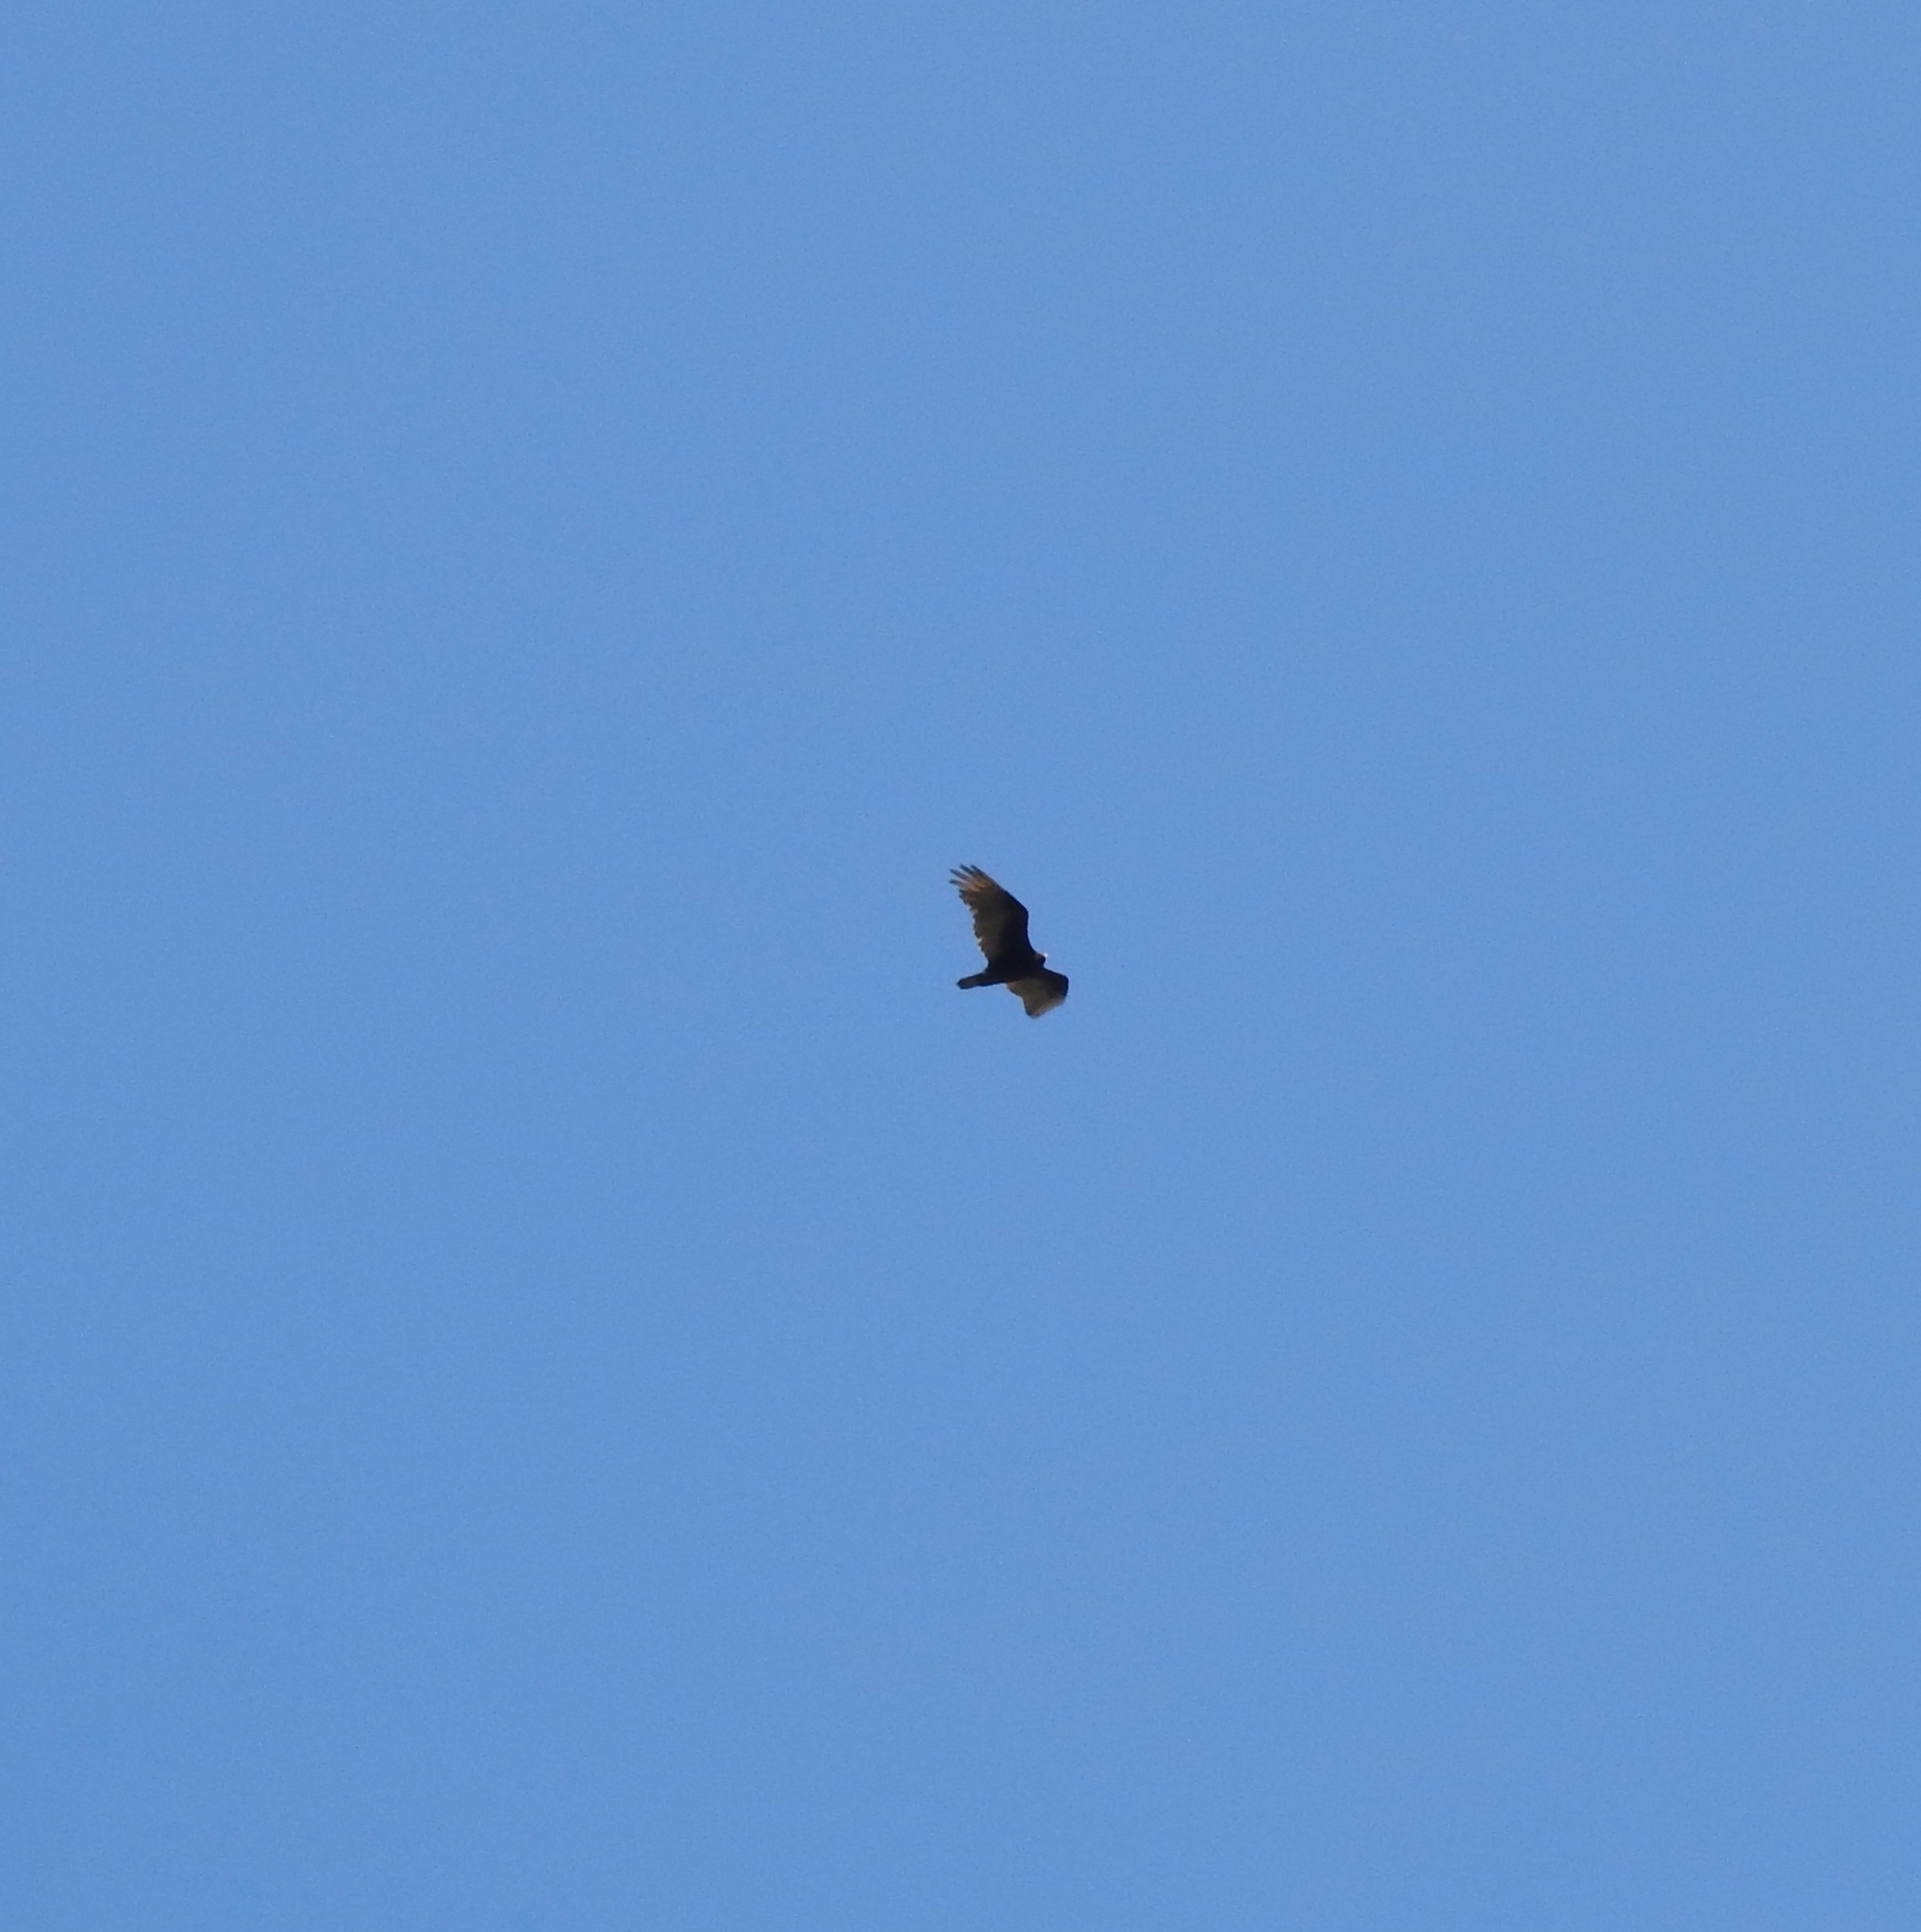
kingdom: Animalia
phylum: Chordata
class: Aves
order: Accipitriformes
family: Cathartidae
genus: Cathartes
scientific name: Cathartes aura
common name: Turkey vulture
